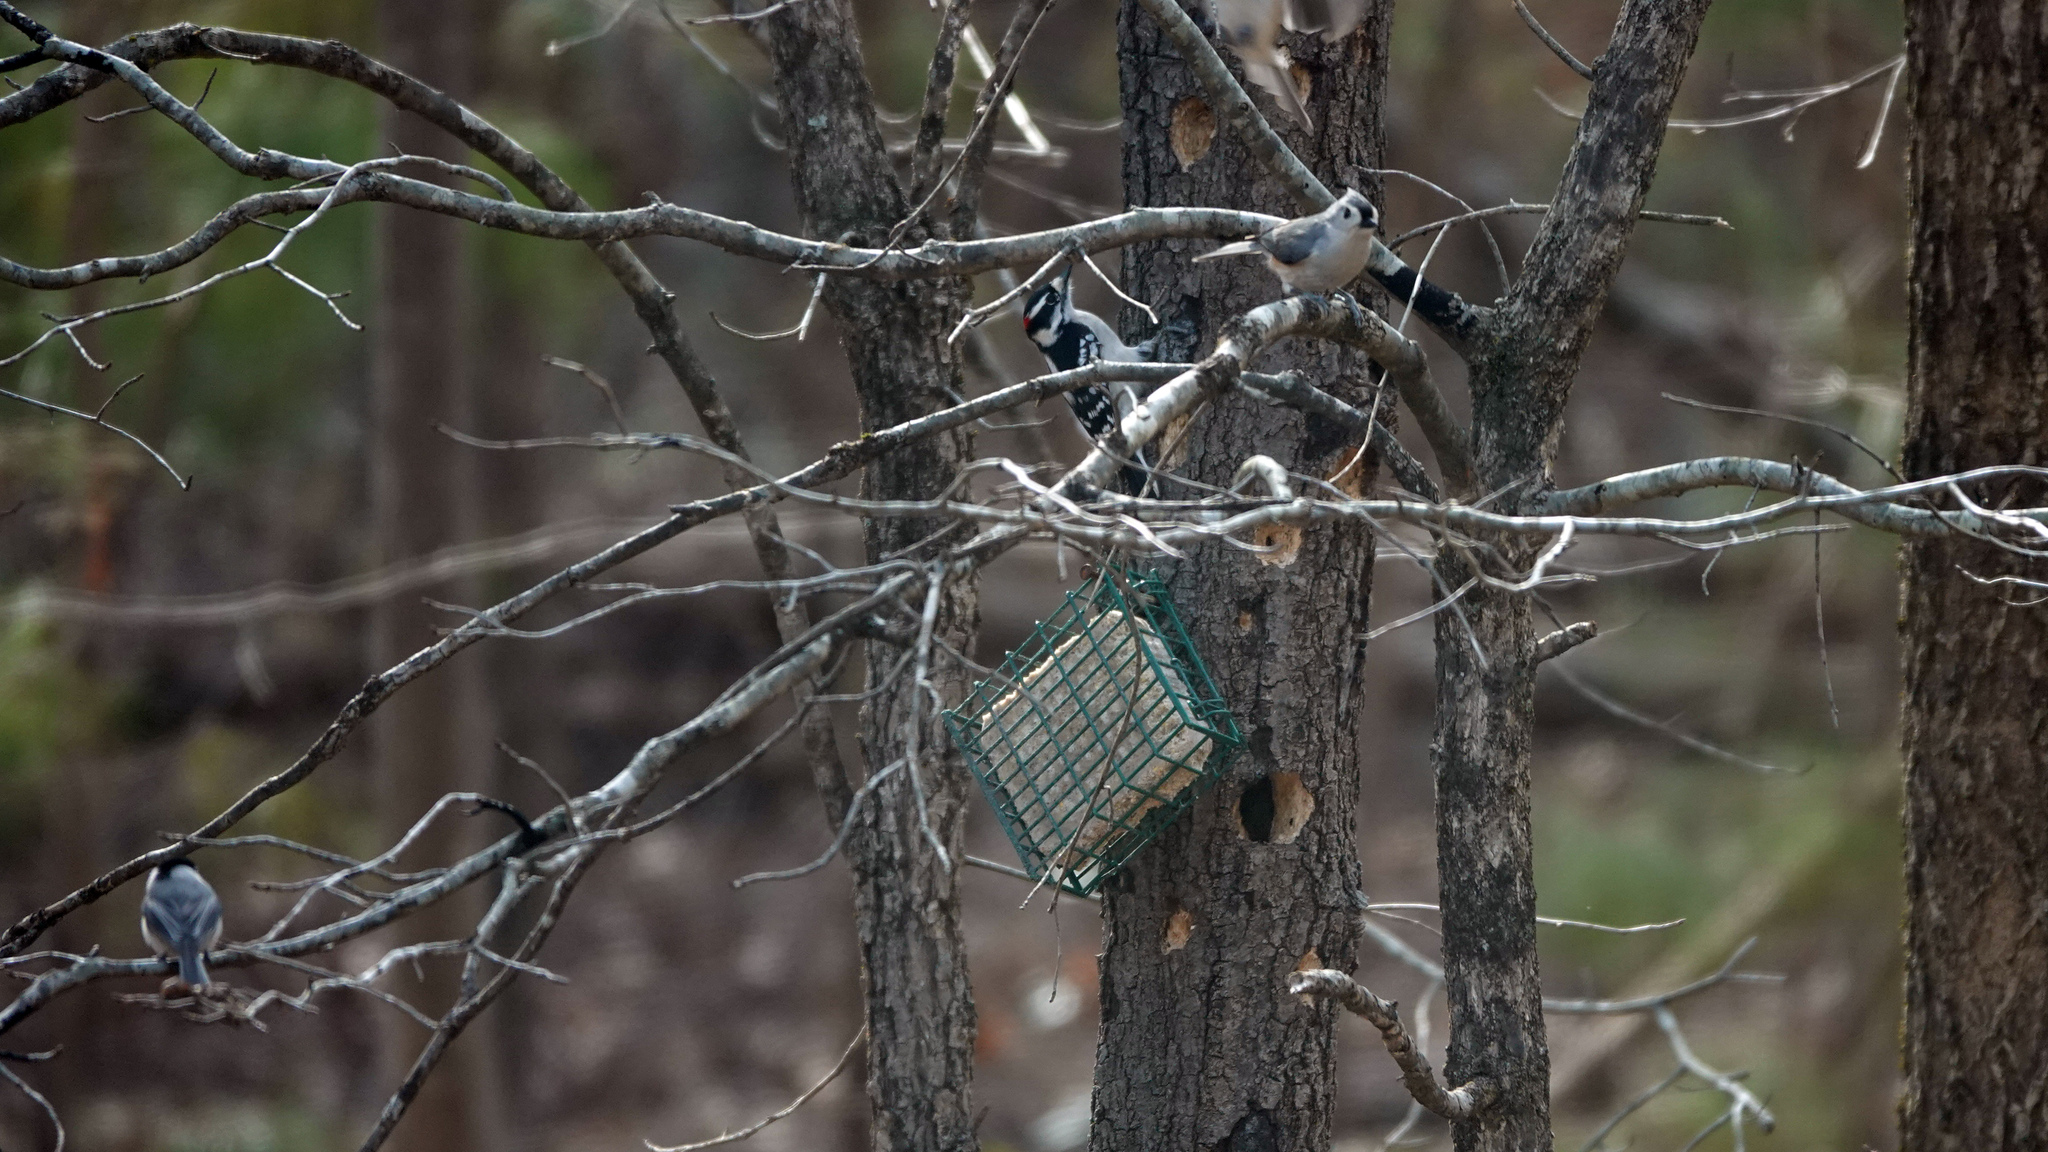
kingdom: Animalia
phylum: Chordata
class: Aves
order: Passeriformes
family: Paridae
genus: Baeolophus
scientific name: Baeolophus bicolor
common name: Tufted titmouse
